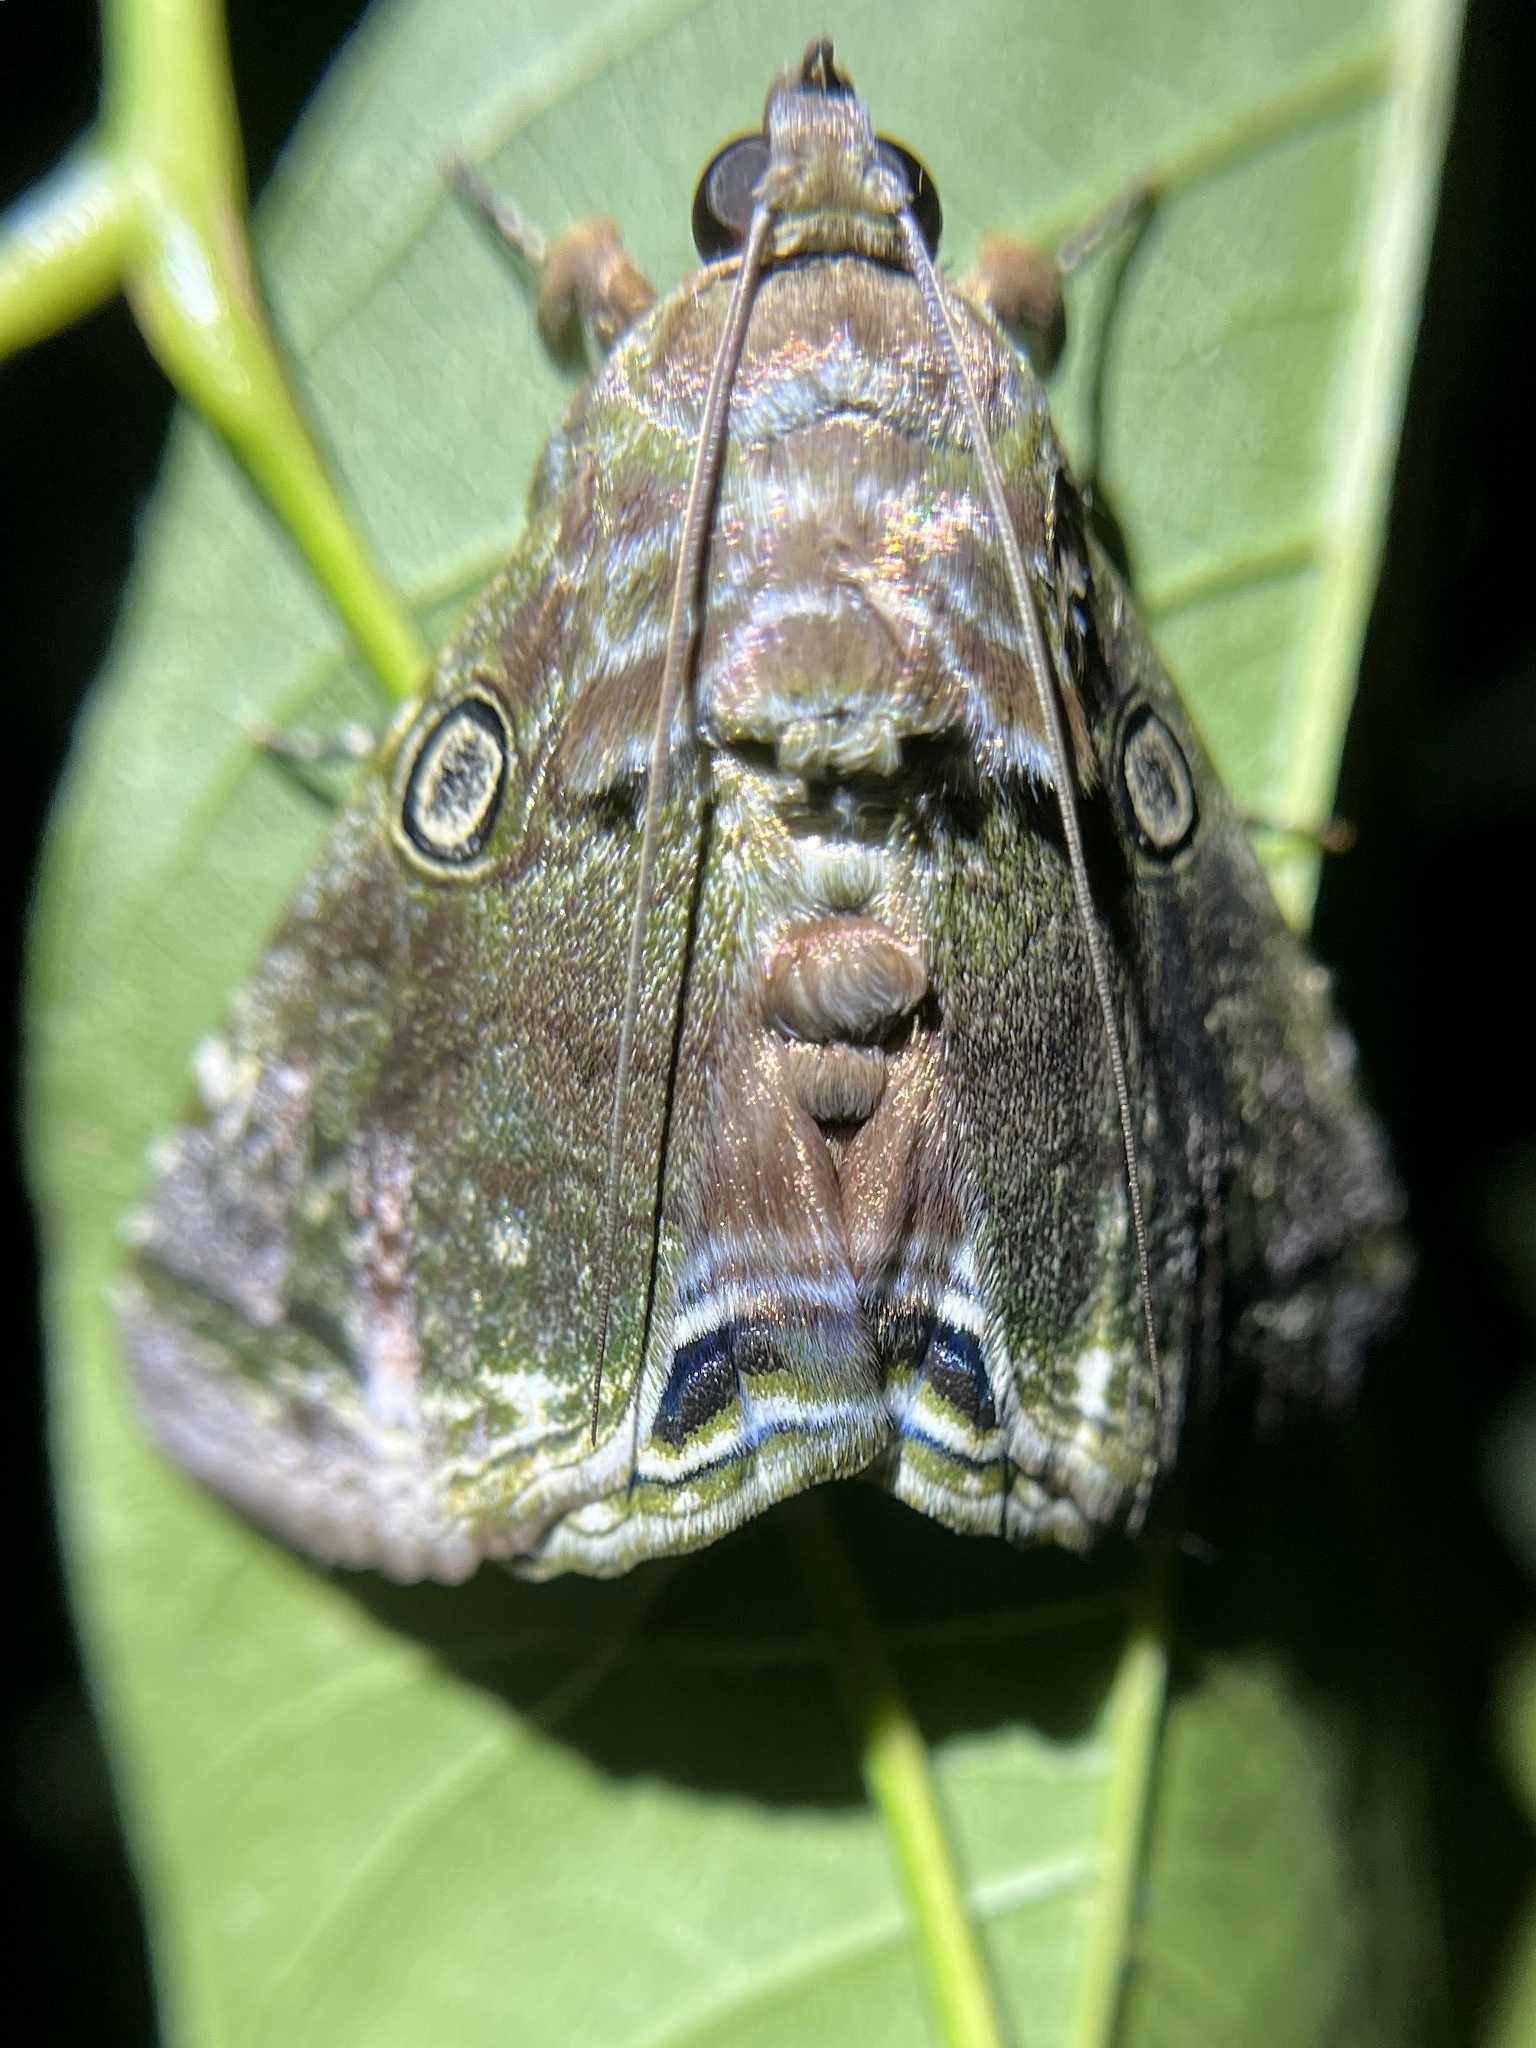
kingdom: Animalia
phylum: Arthropoda
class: Insecta
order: Lepidoptera
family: Erebidae
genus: Cyclodes
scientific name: Cyclodes omma
